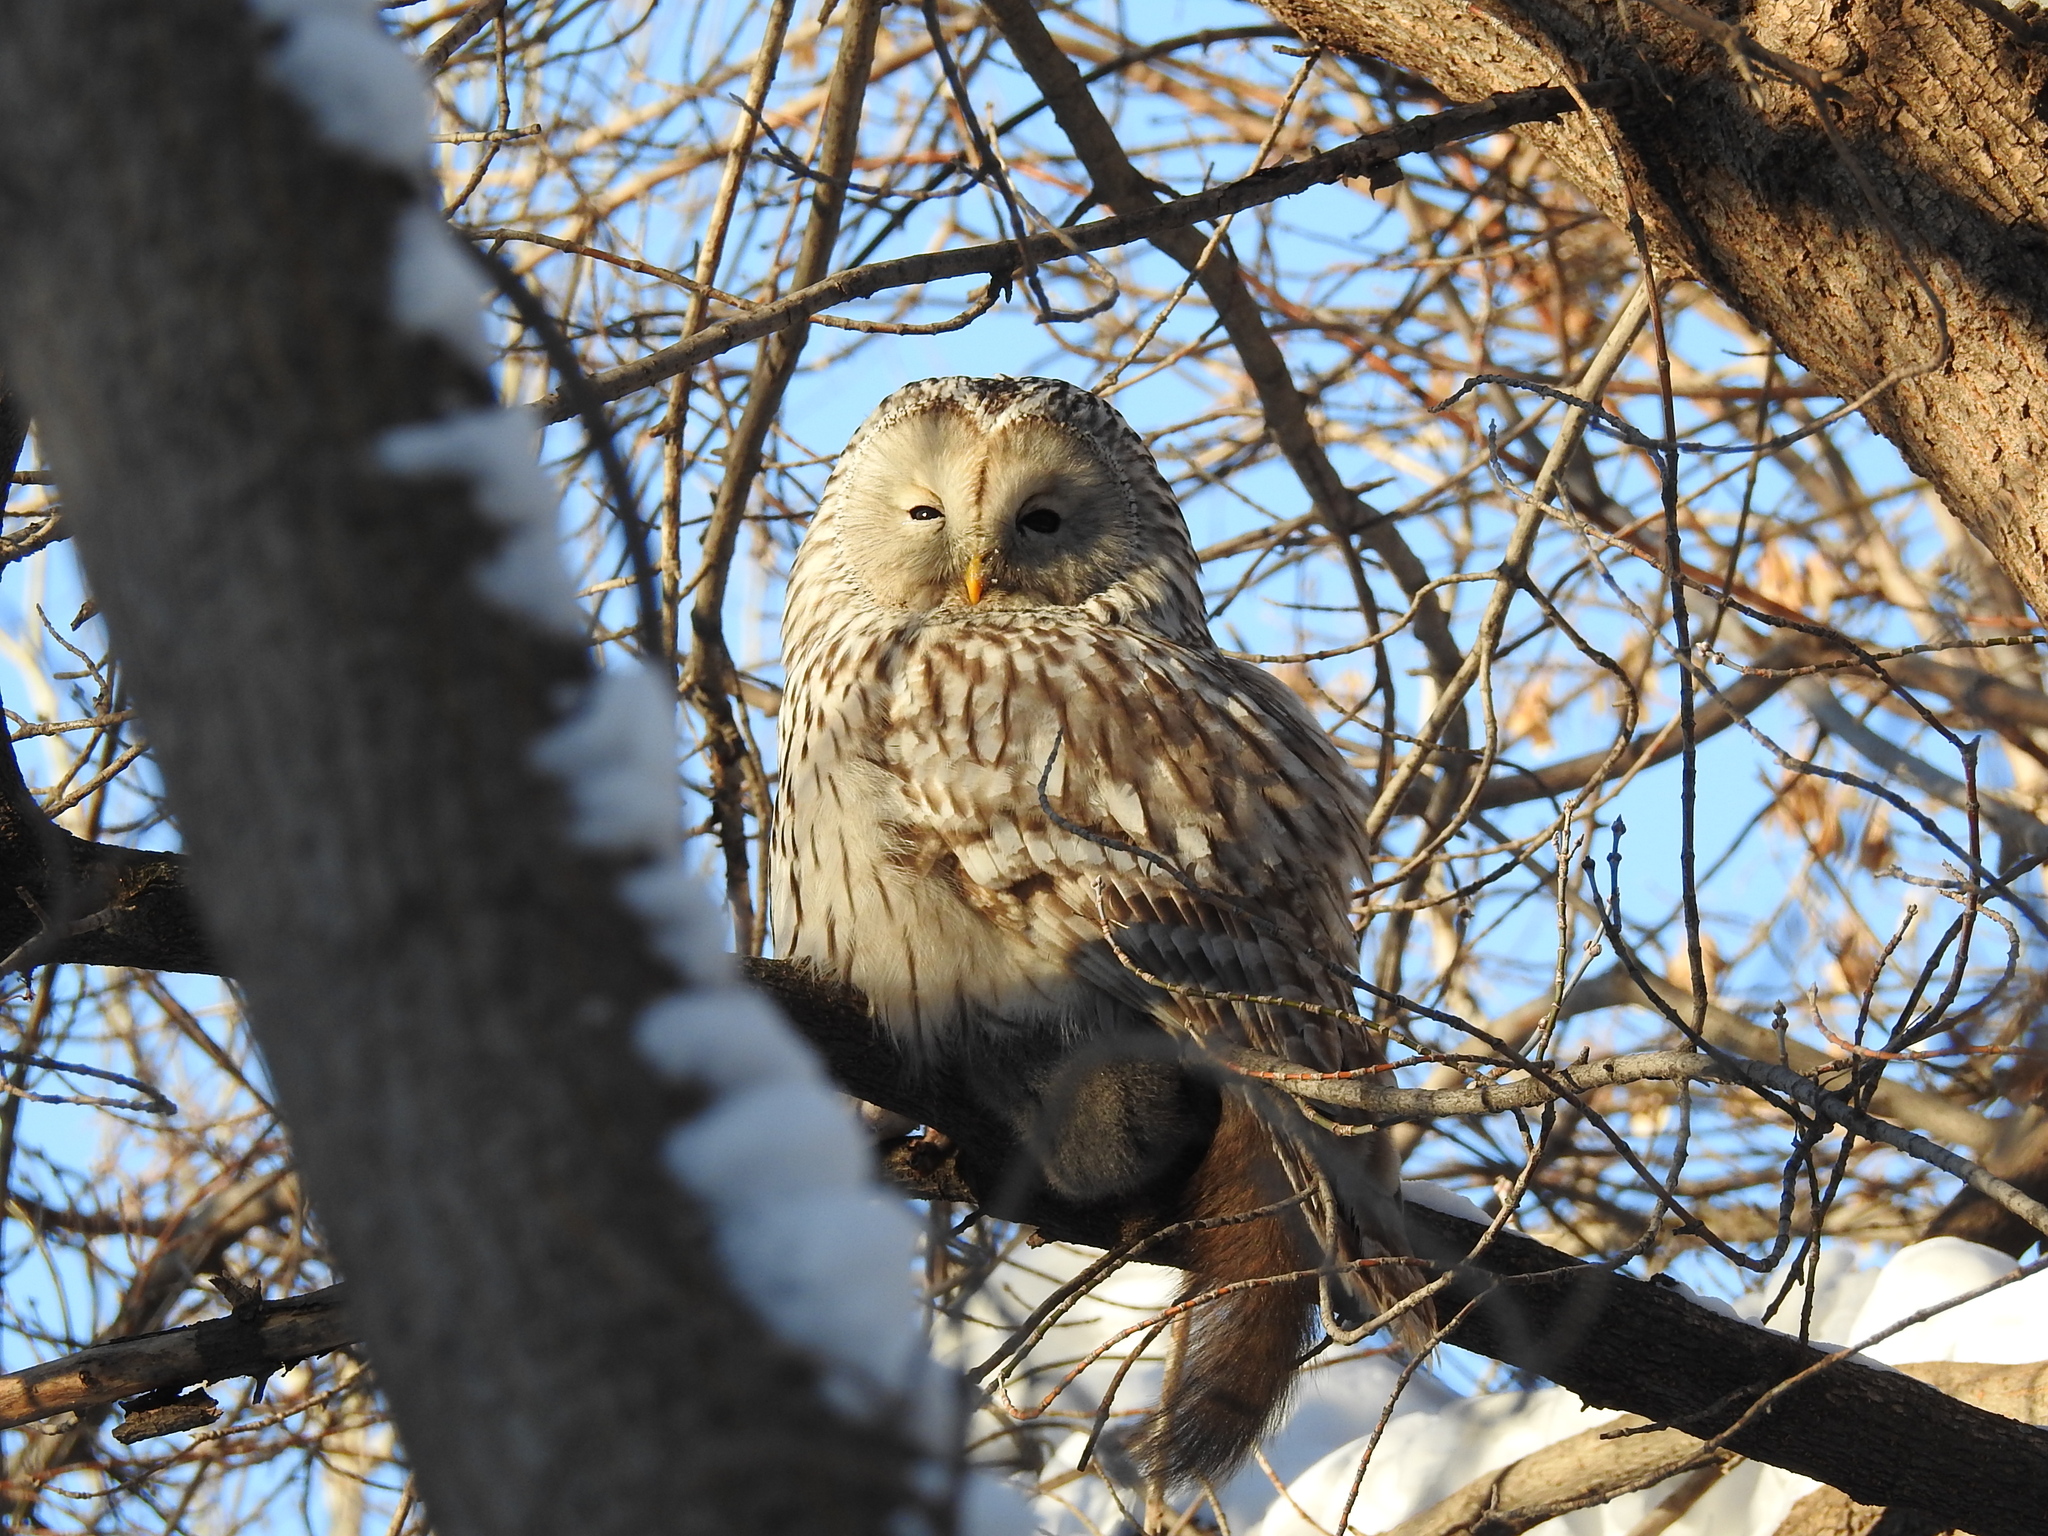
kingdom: Animalia
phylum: Chordata
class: Aves
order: Strigiformes
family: Strigidae
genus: Strix
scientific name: Strix uralensis
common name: Ural owl
